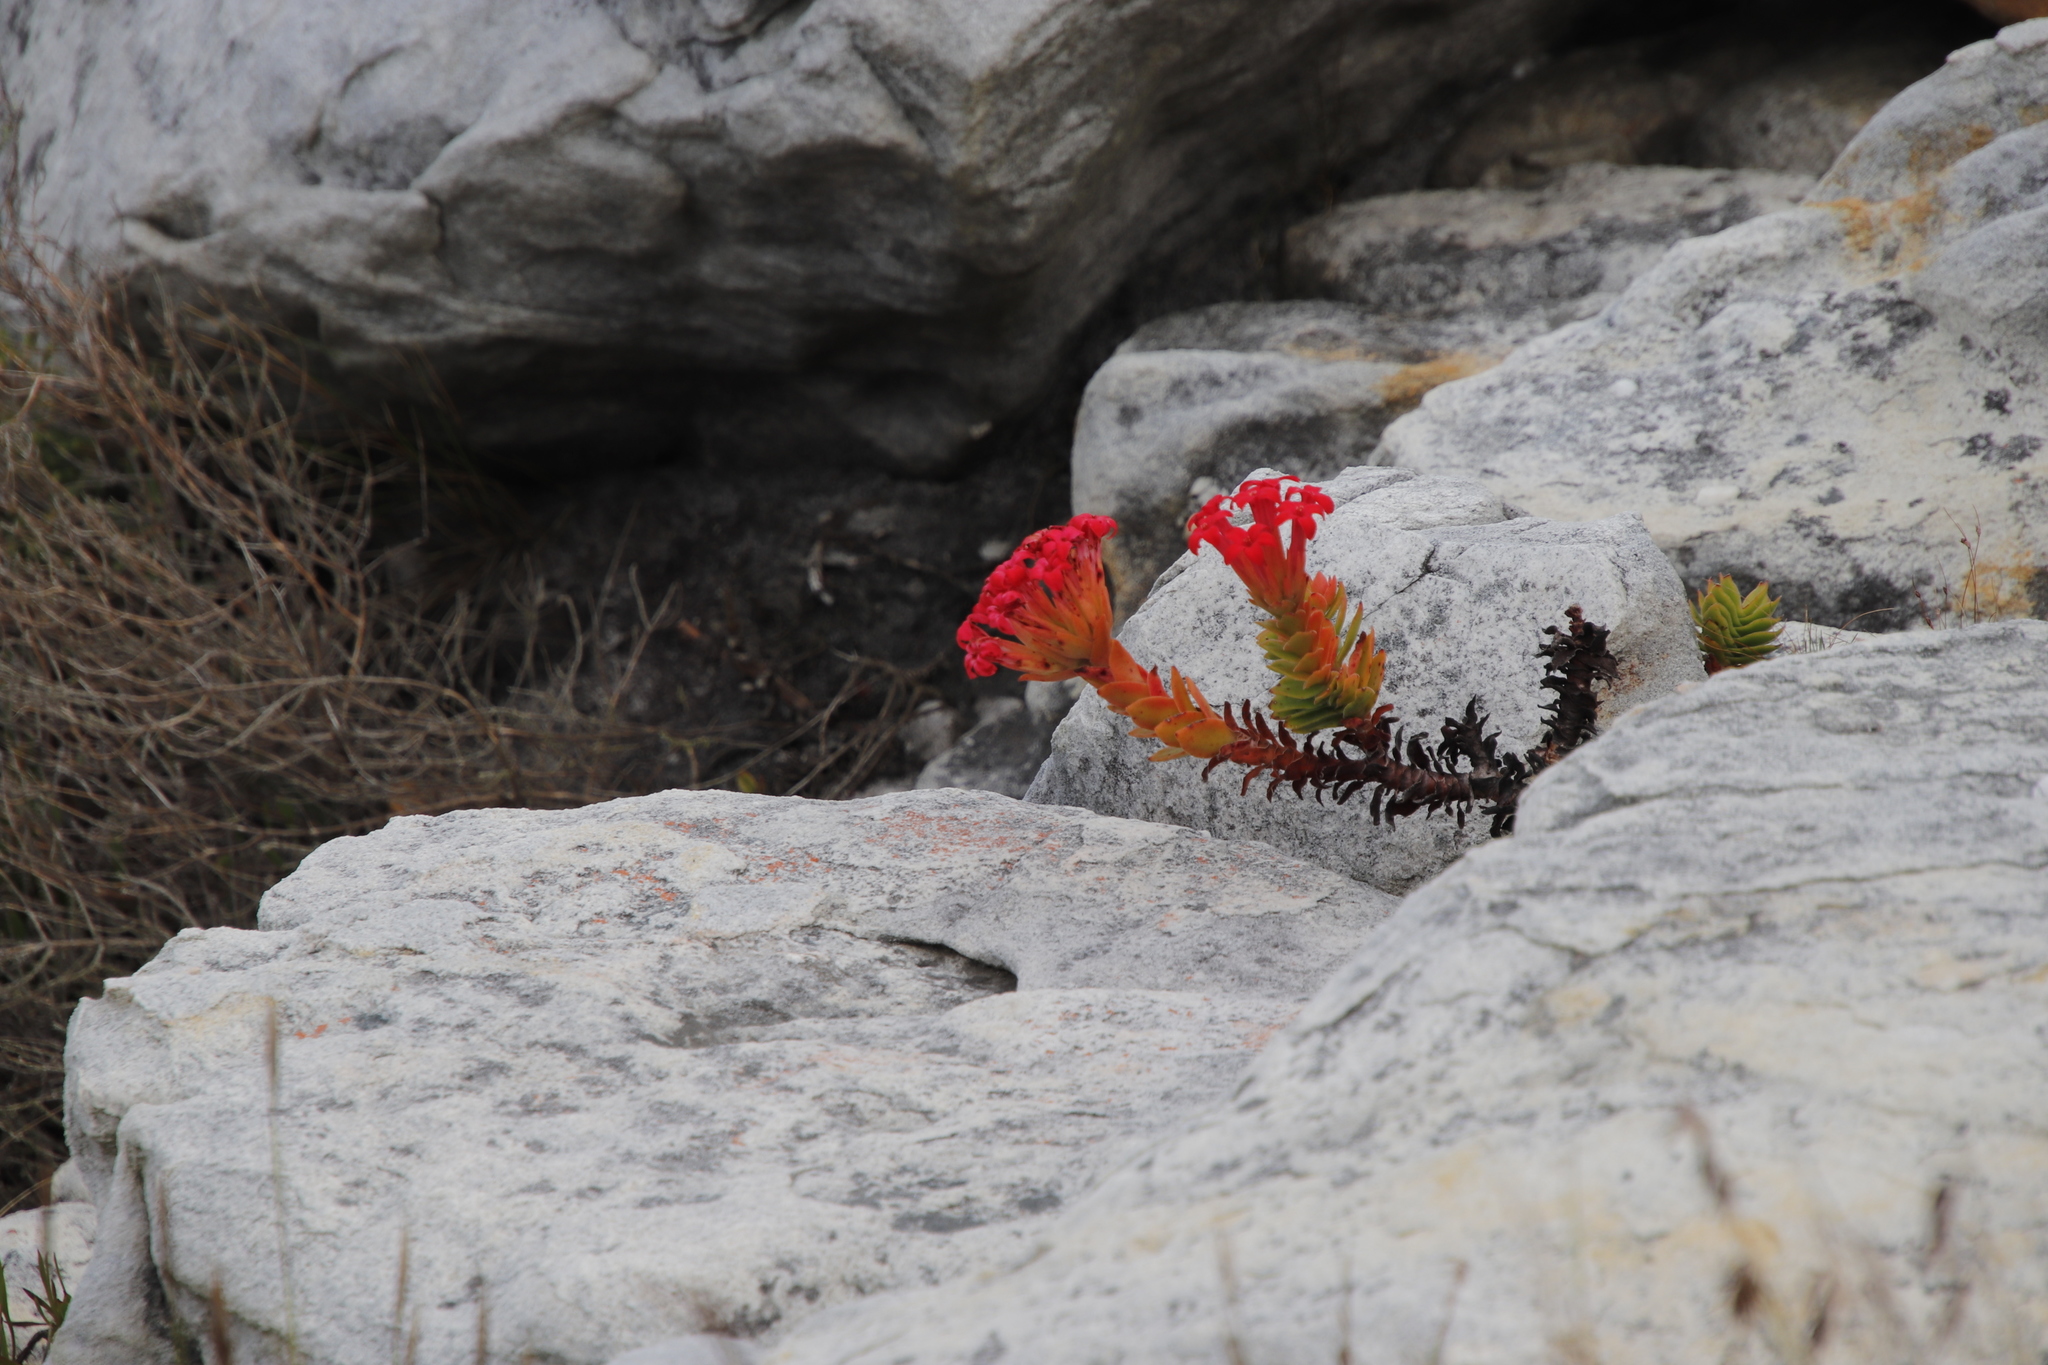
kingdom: Plantae
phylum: Tracheophyta
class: Magnoliopsida
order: Saxifragales
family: Crassulaceae
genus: Crassula
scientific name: Crassula coccinea
